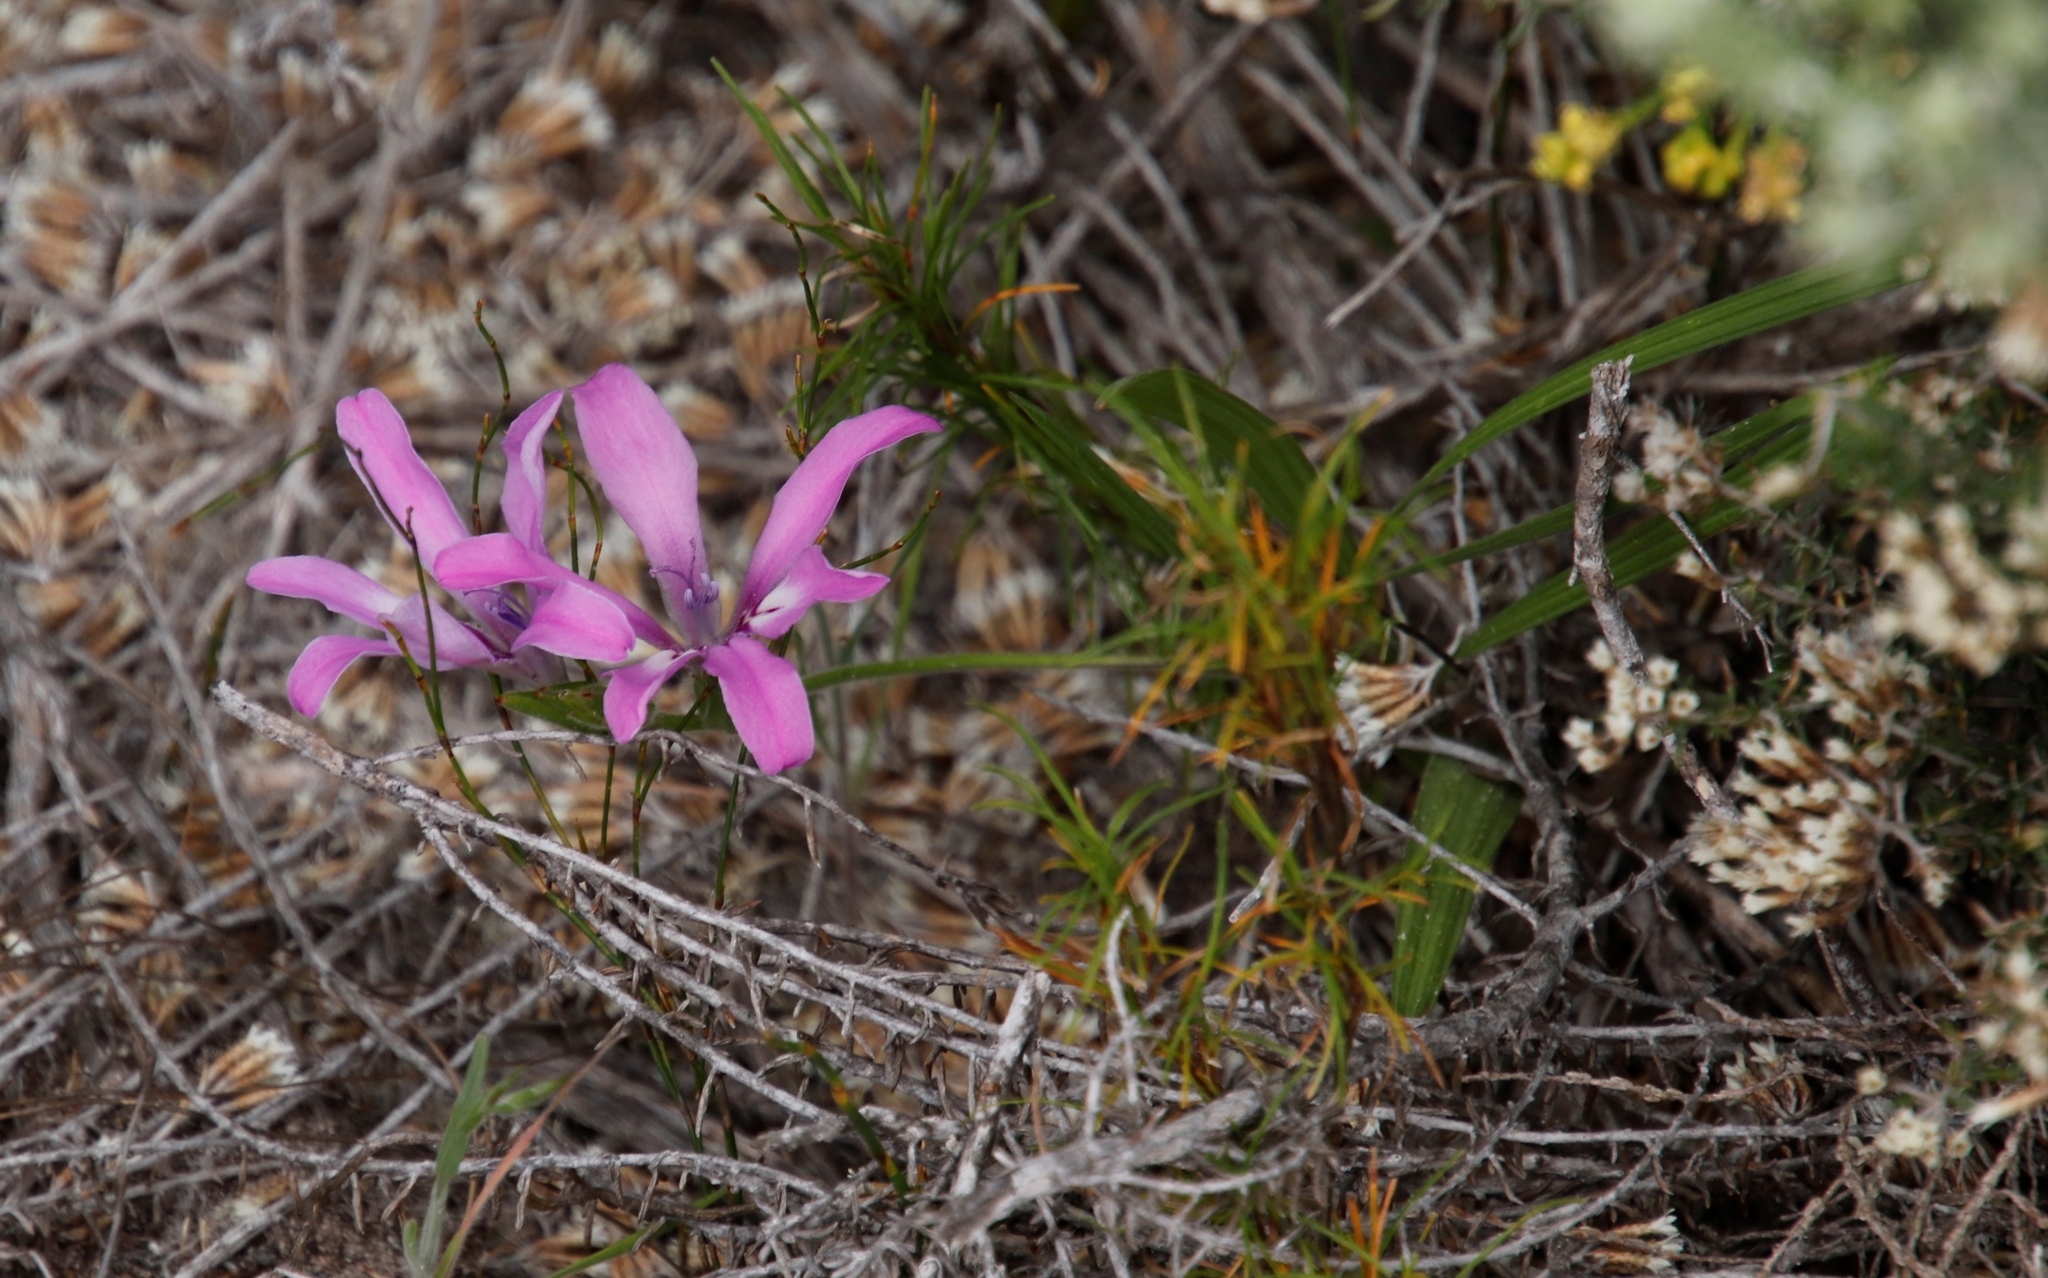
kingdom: Plantae
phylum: Tracheophyta
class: Liliopsida
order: Asparagales
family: Iridaceae
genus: Babiana
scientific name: Babiana ambigua
